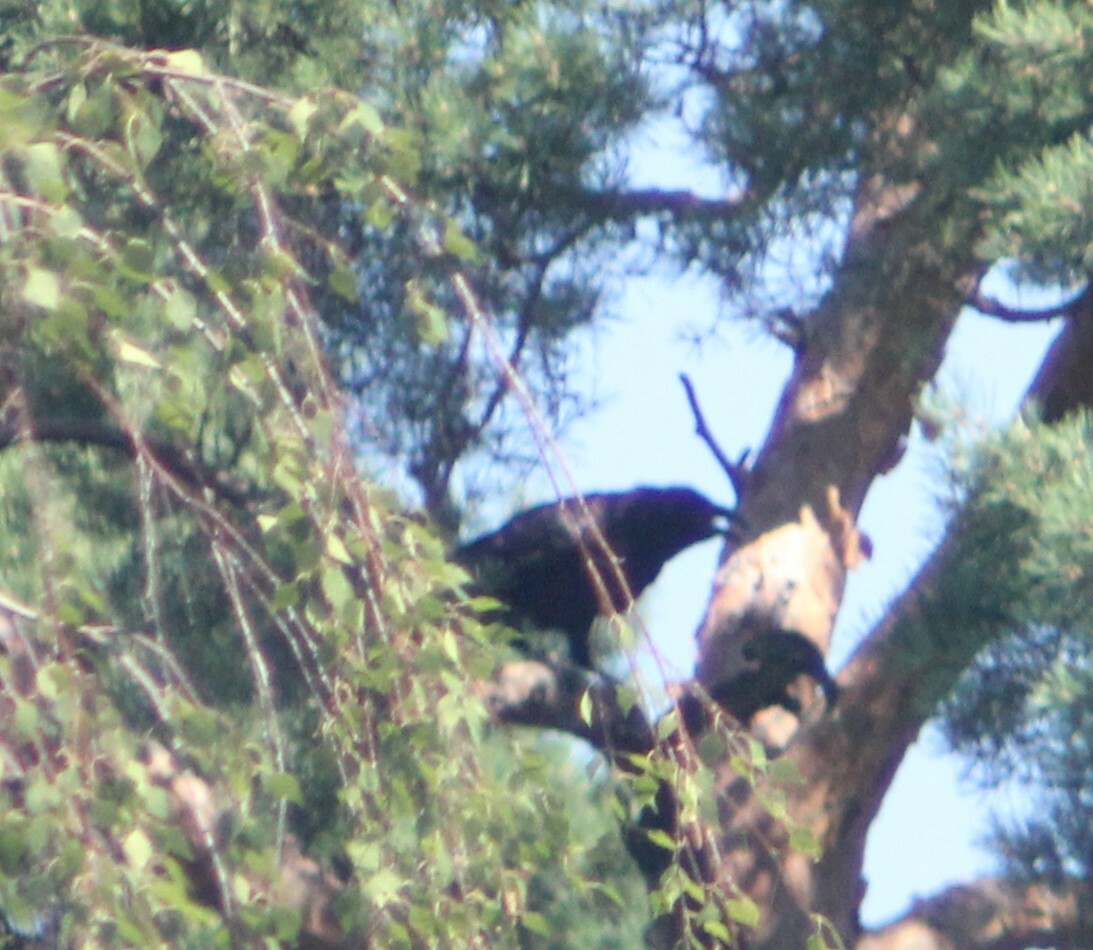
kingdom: Animalia
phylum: Chordata
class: Aves
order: Passeriformes
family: Corvidae
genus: Corvus
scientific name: Corvus corax
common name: Common raven
